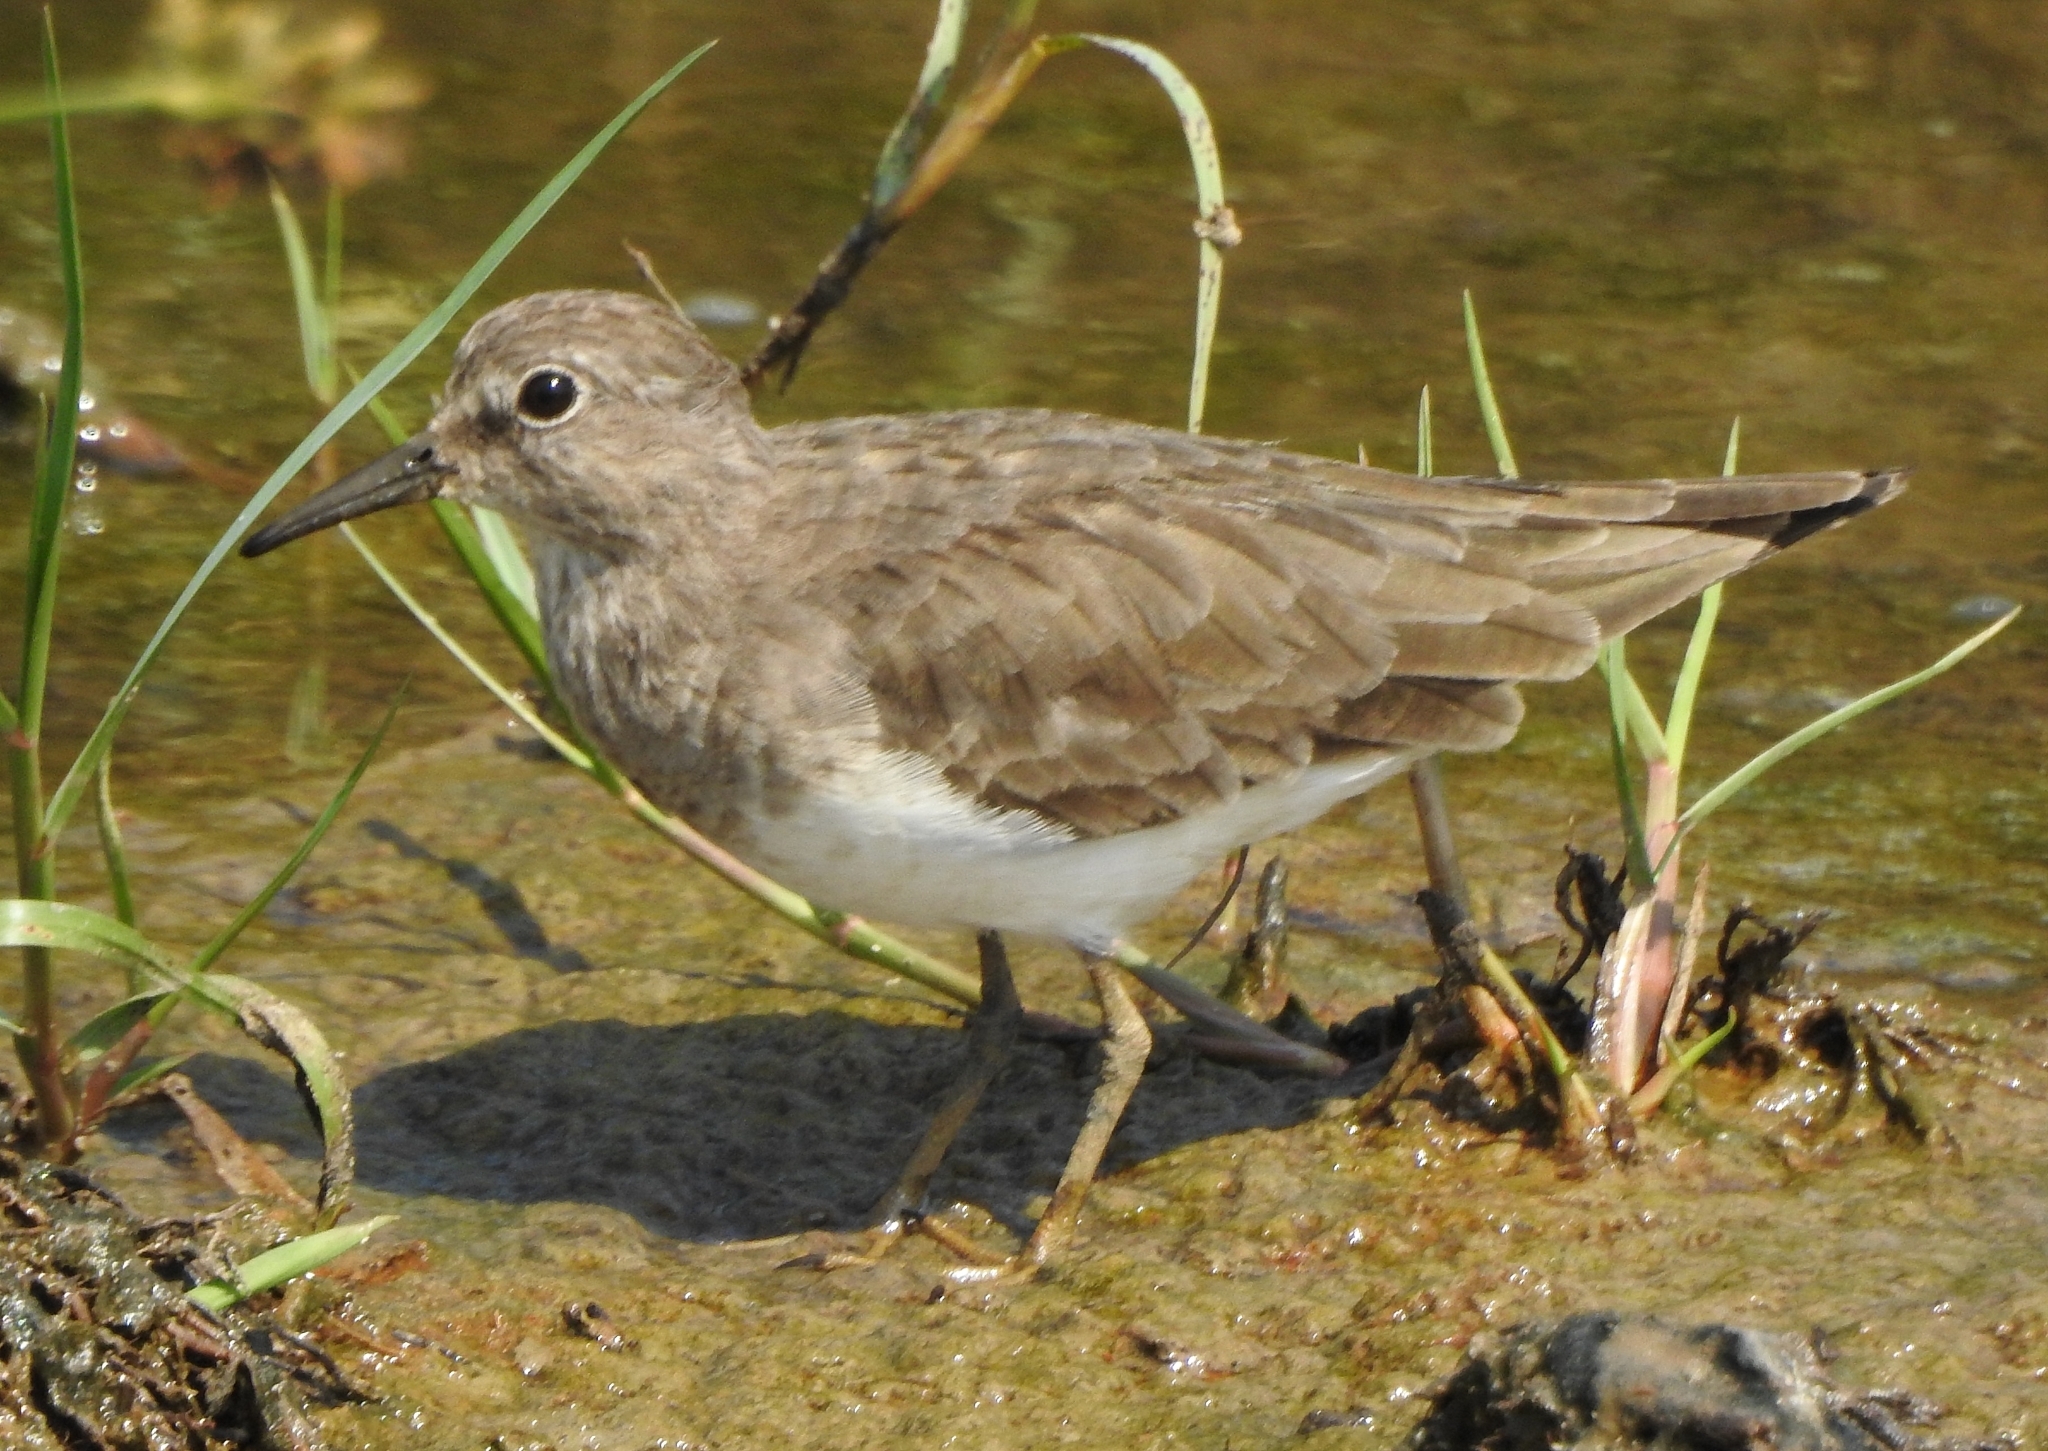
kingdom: Animalia
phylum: Chordata
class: Aves
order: Charadriiformes
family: Scolopacidae
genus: Calidris
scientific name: Calidris temminckii
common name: Temminck's stint
